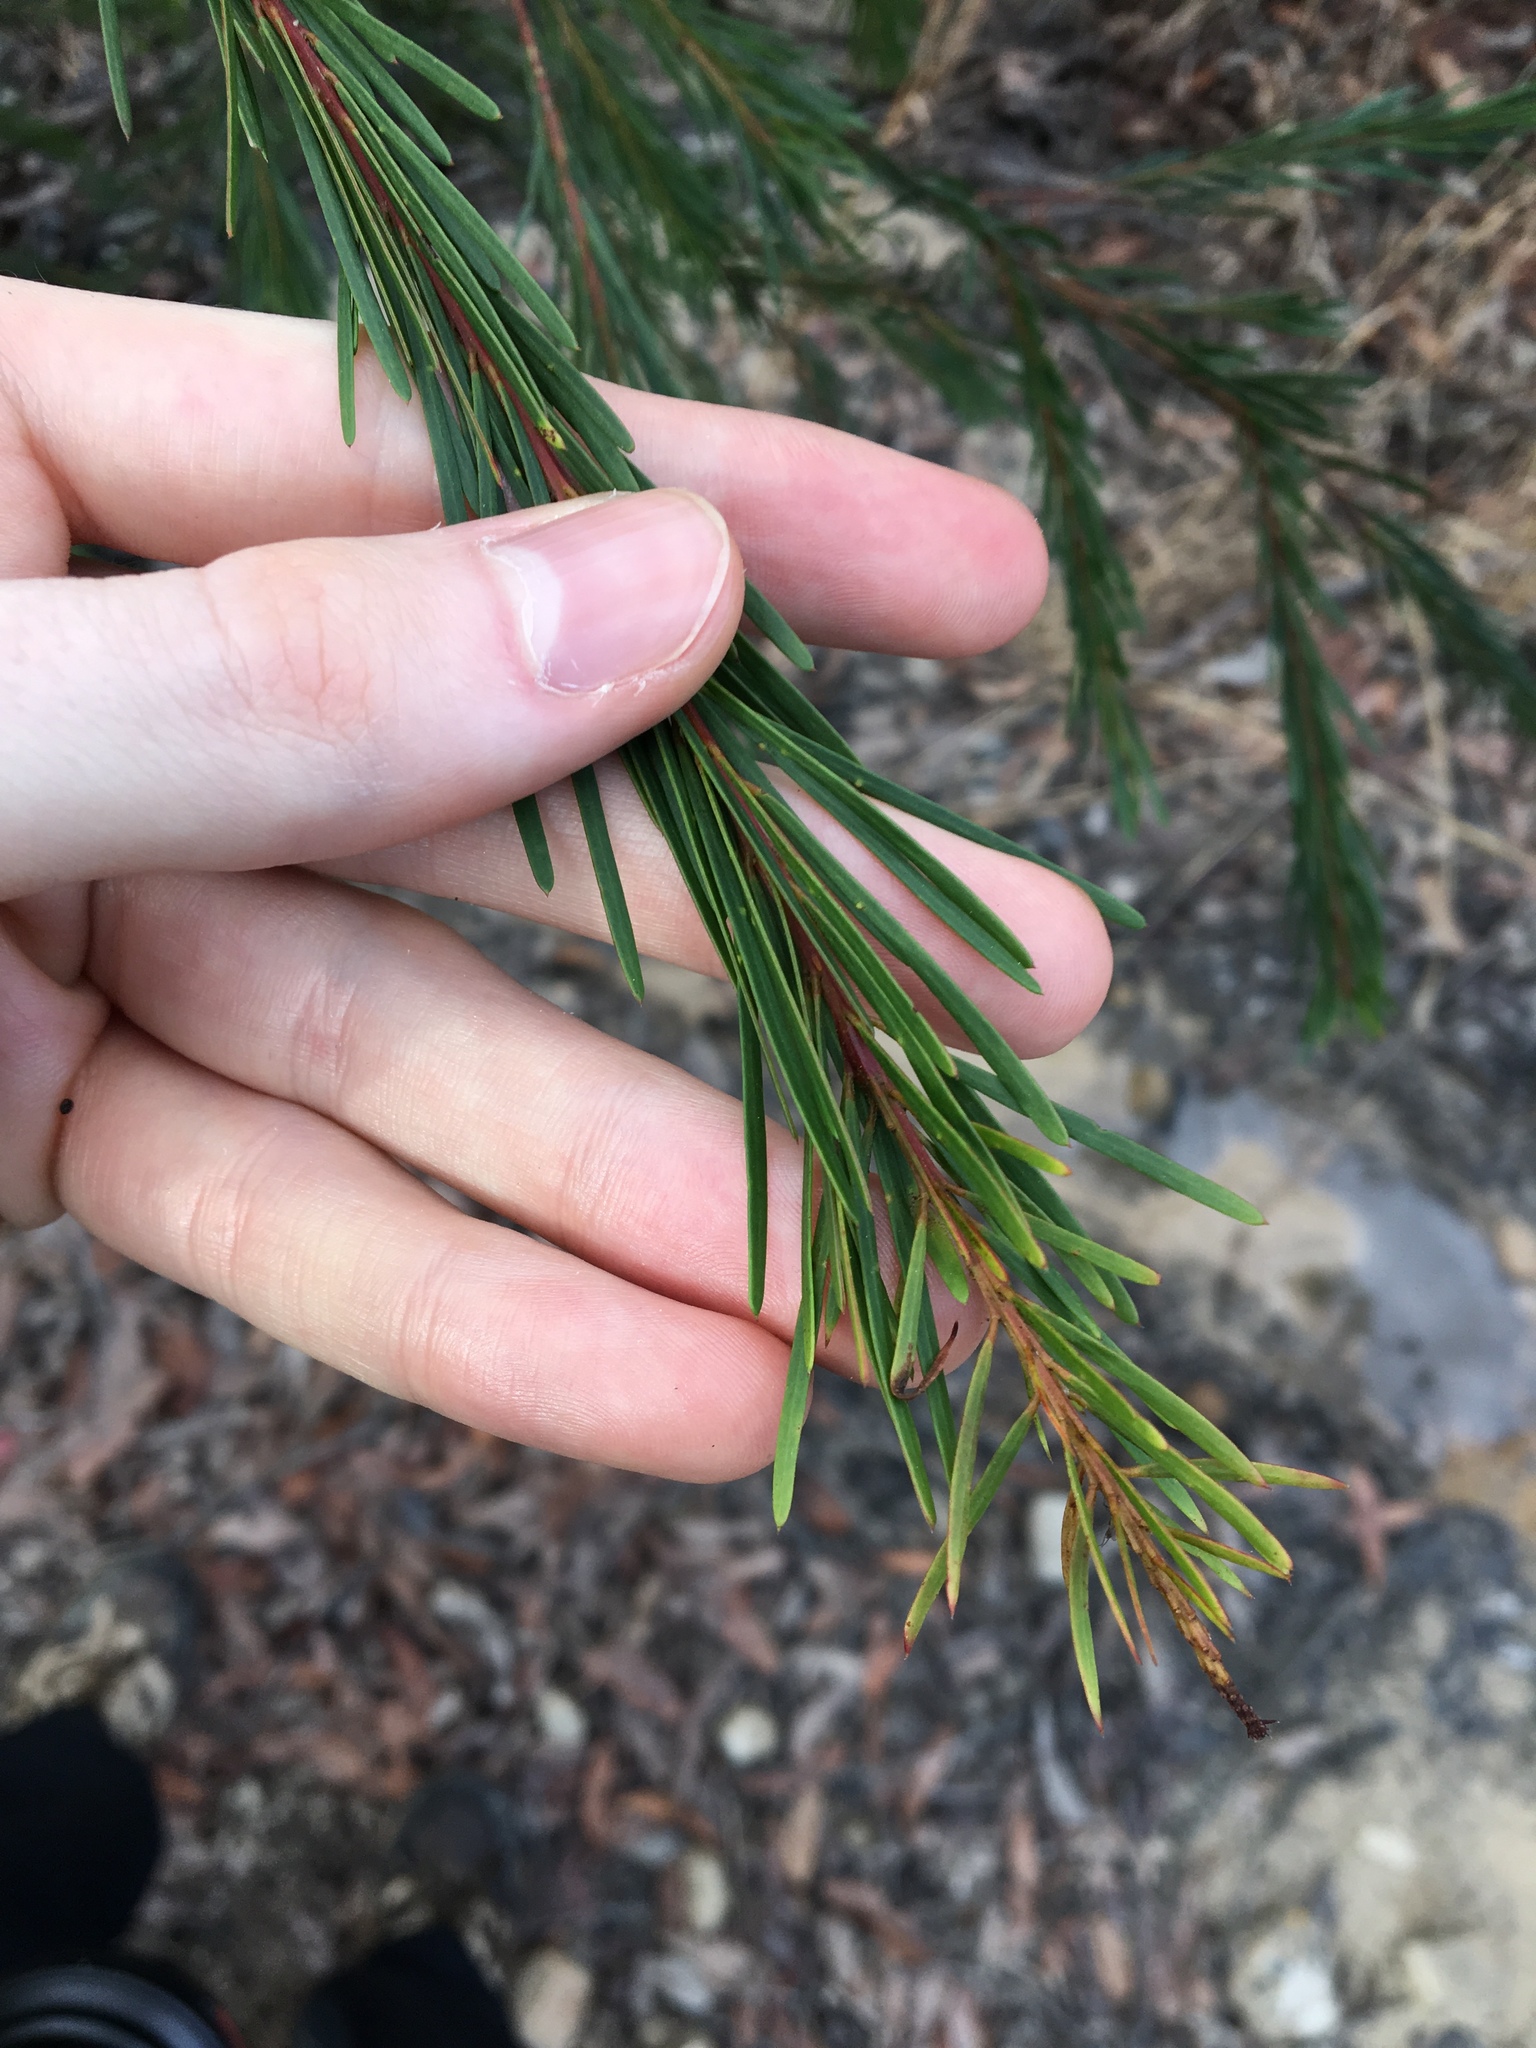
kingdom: Plantae
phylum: Tracheophyta
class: Magnoliopsida
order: Fabales
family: Fabaceae
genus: Acacia
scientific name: Acacia linifolia
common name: White wattle
